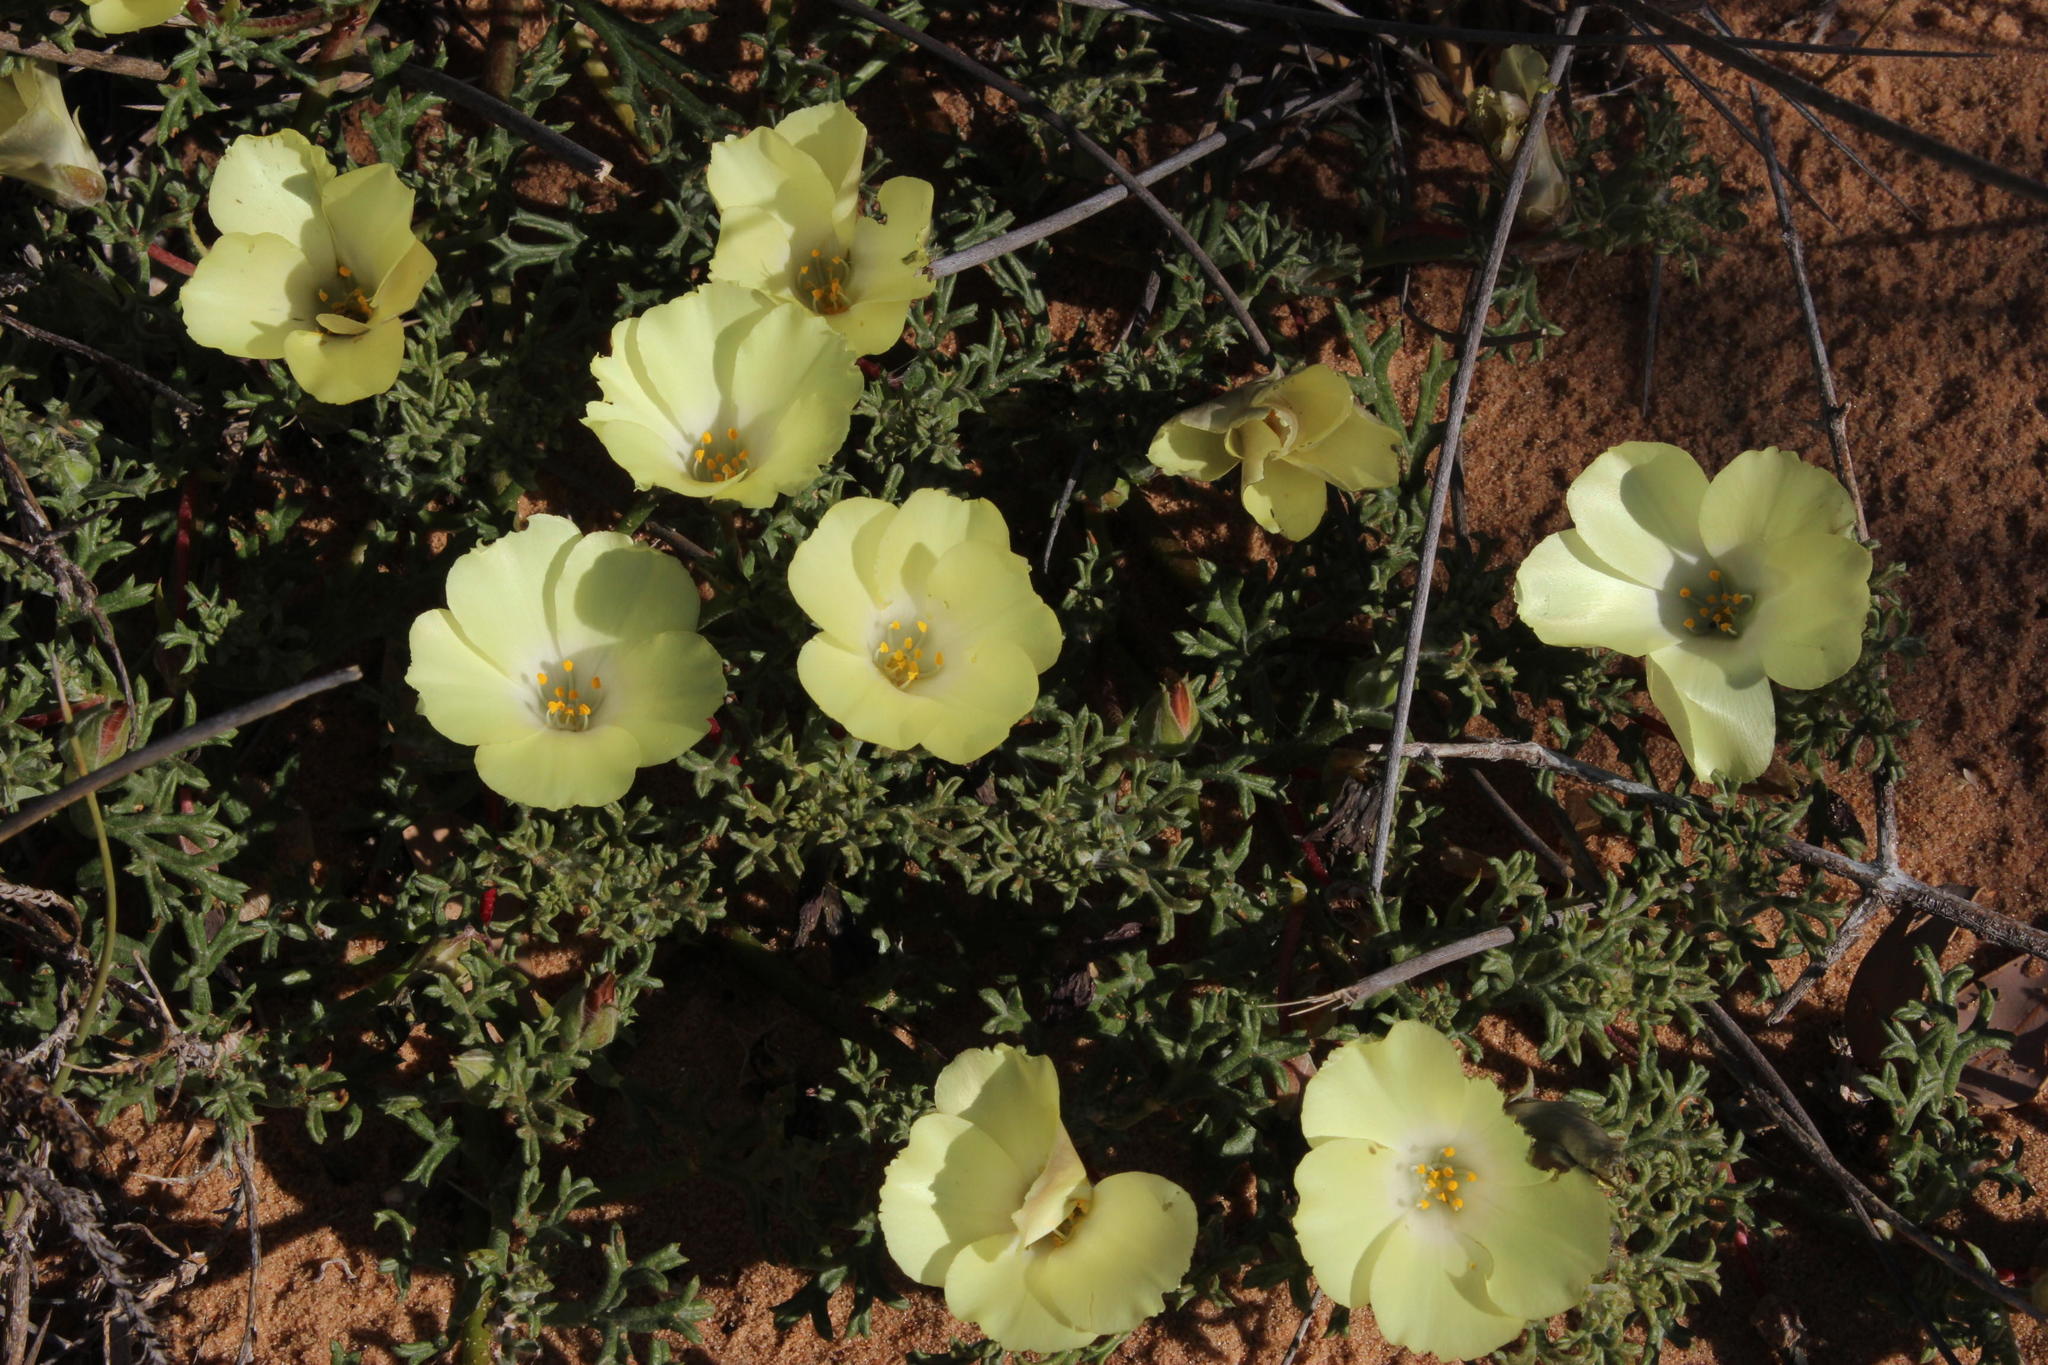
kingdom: Plantae
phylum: Tracheophyta
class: Magnoliopsida
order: Malvales
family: Neuradaceae
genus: Grielum
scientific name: Grielum humifusum
